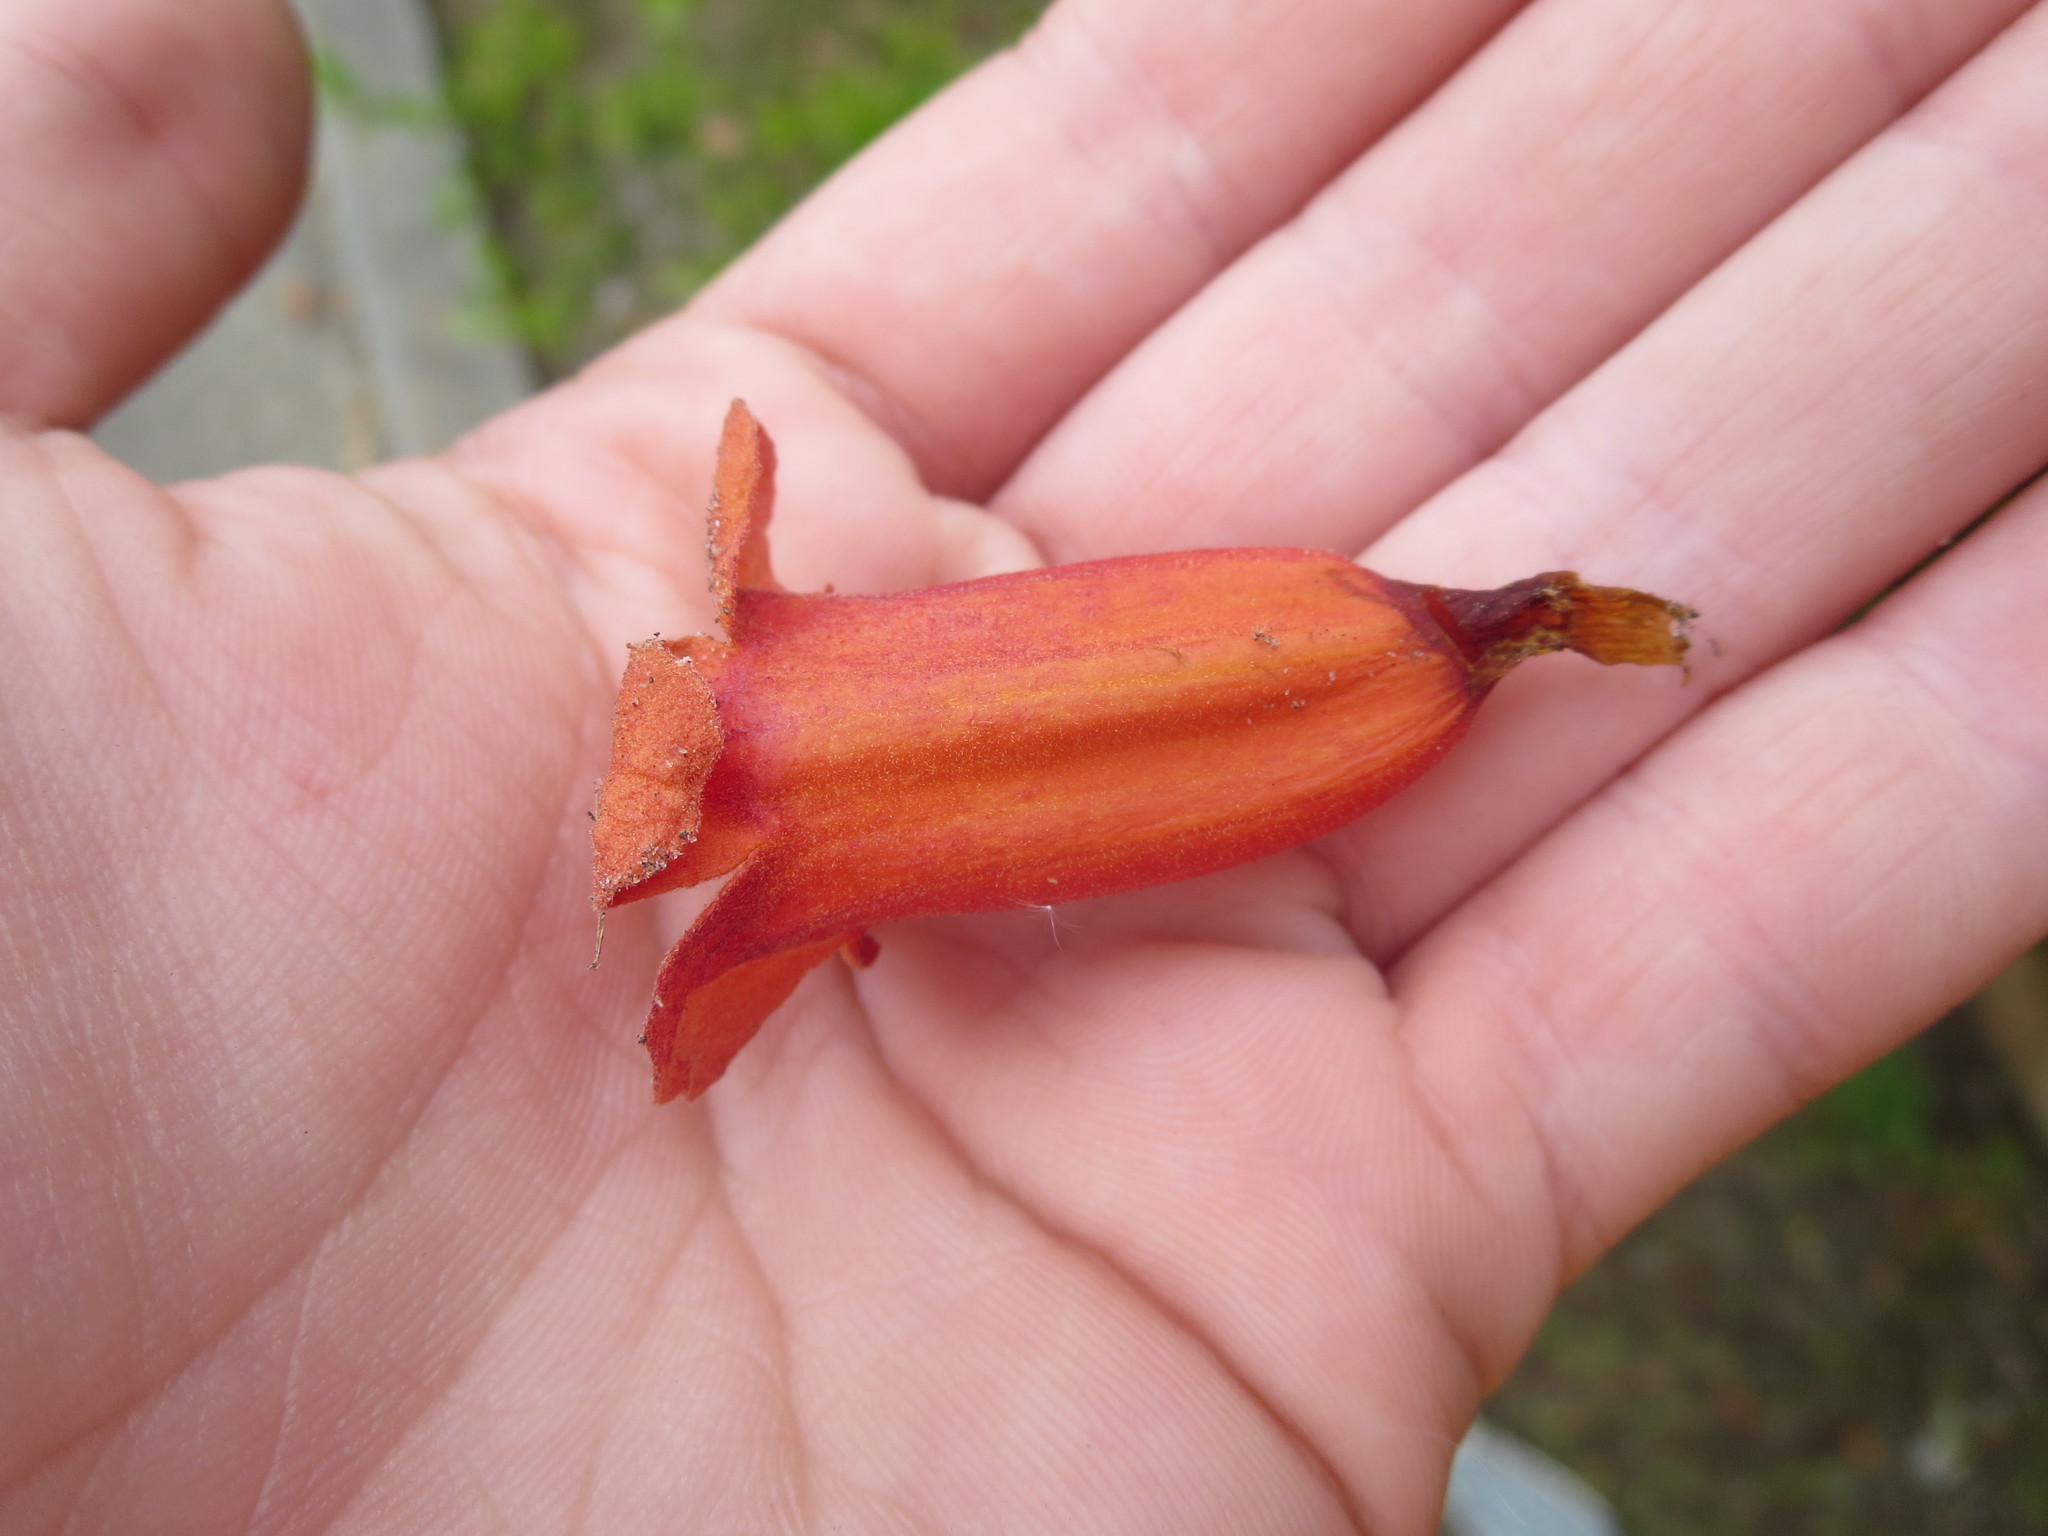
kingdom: Plantae
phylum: Tracheophyta
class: Magnoliopsida
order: Lamiales
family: Bignoniaceae
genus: Bignonia
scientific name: Bignonia capreolata
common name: Crossvine
